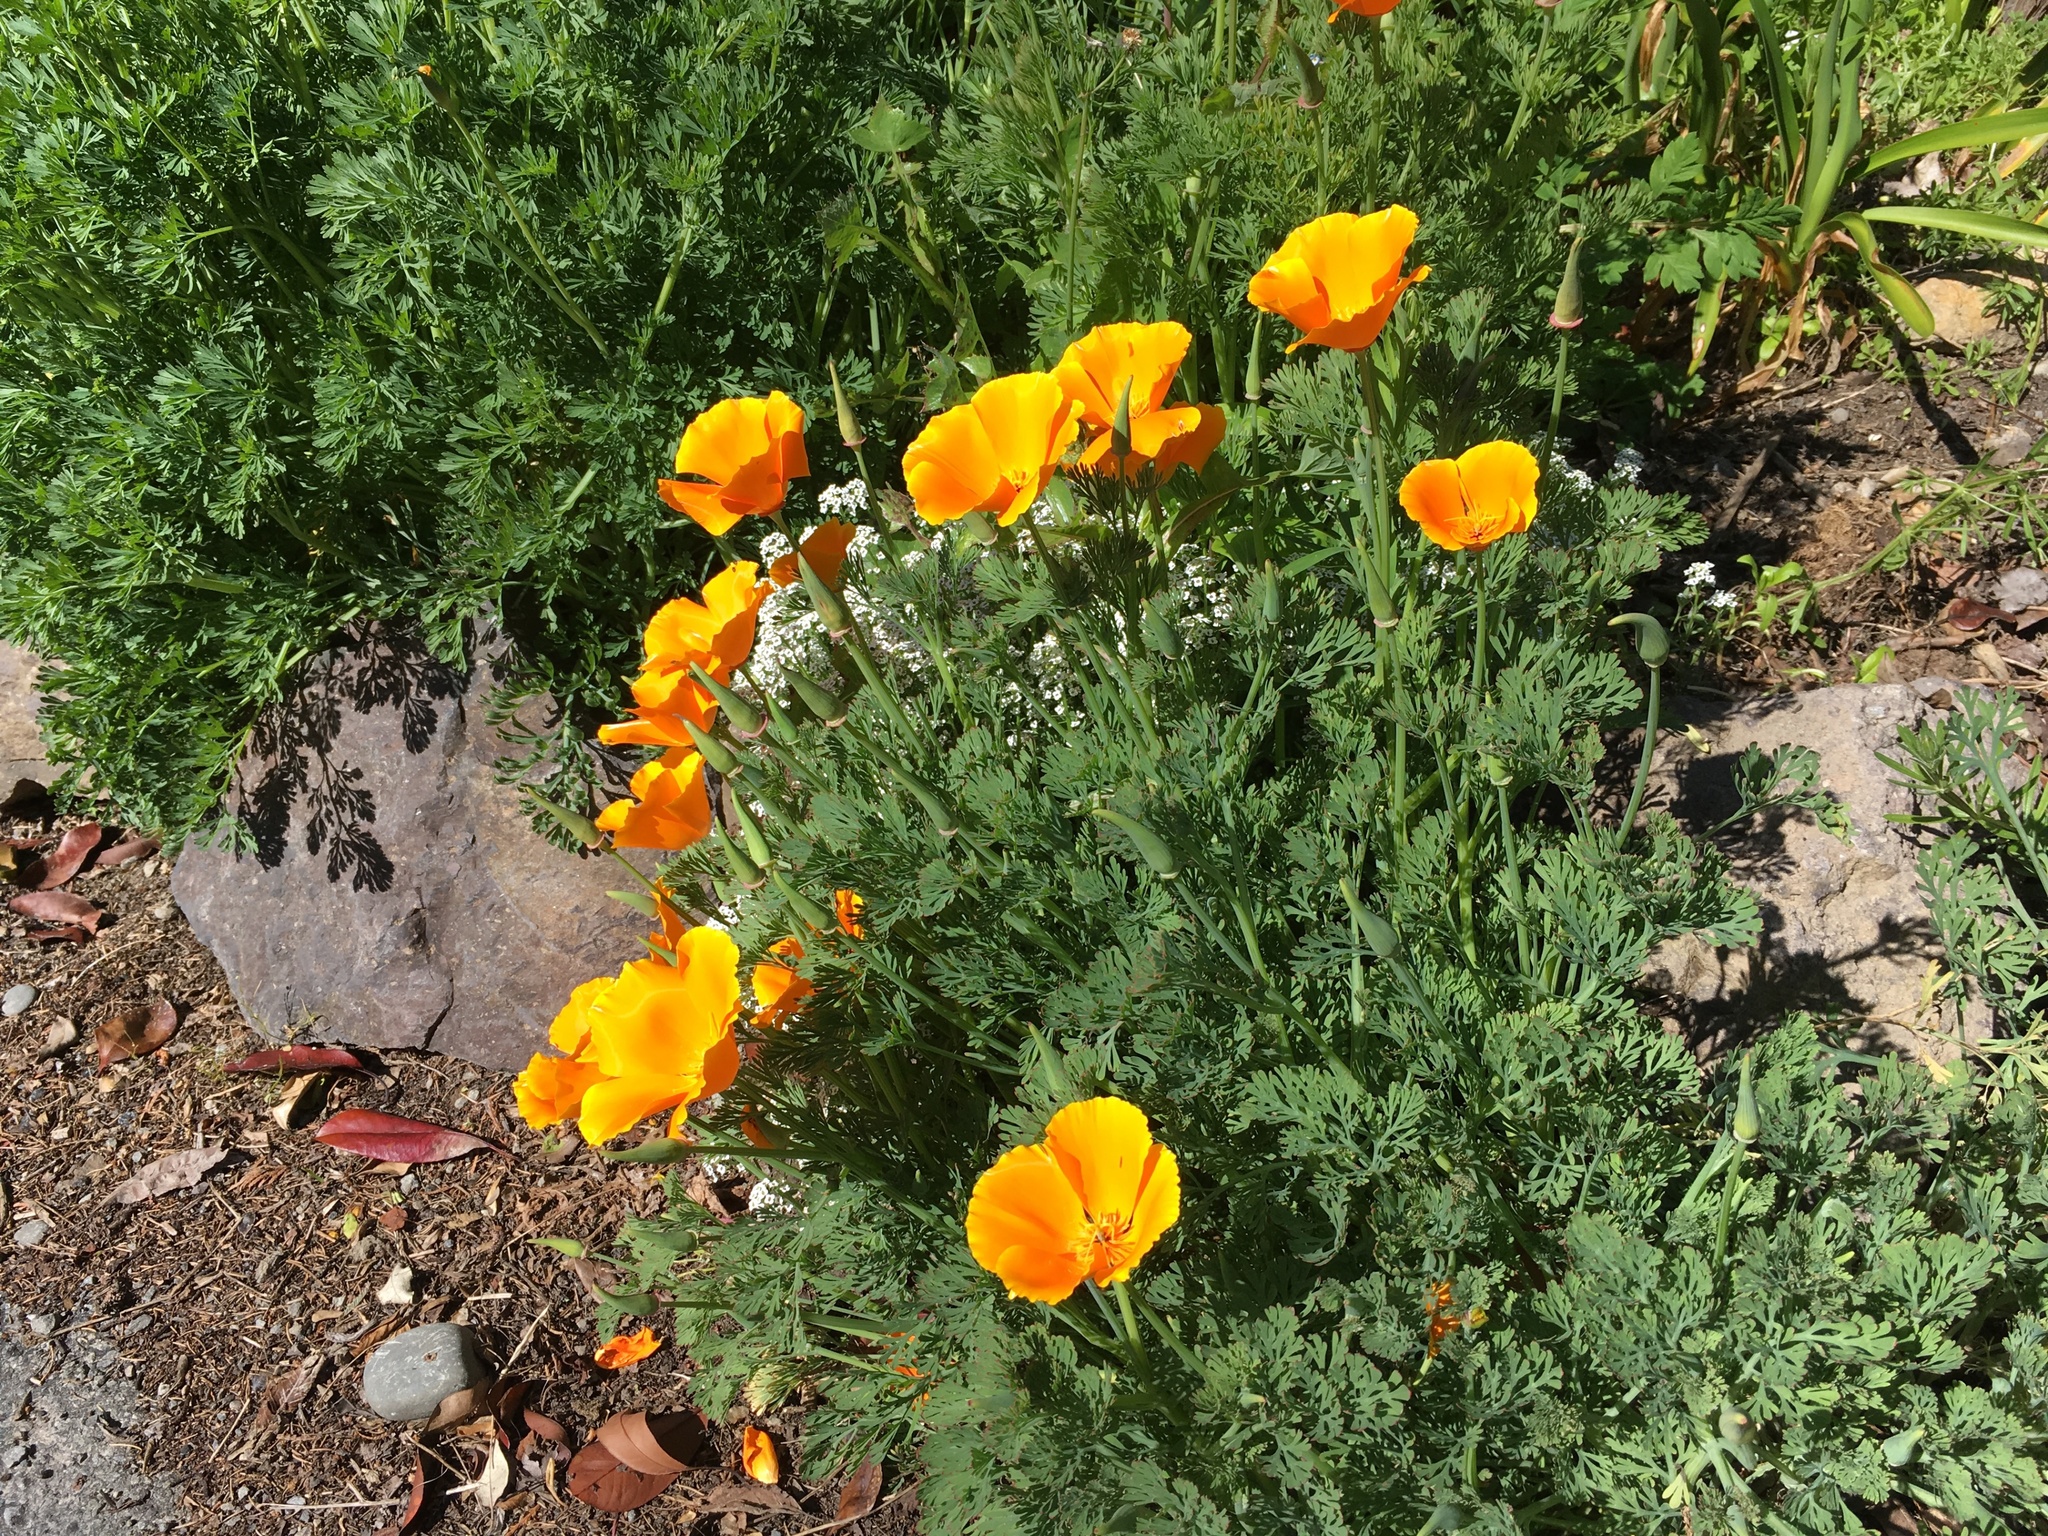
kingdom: Plantae
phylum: Tracheophyta
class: Magnoliopsida
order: Ranunculales
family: Papaveraceae
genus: Eschscholzia
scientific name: Eschscholzia californica
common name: California poppy
